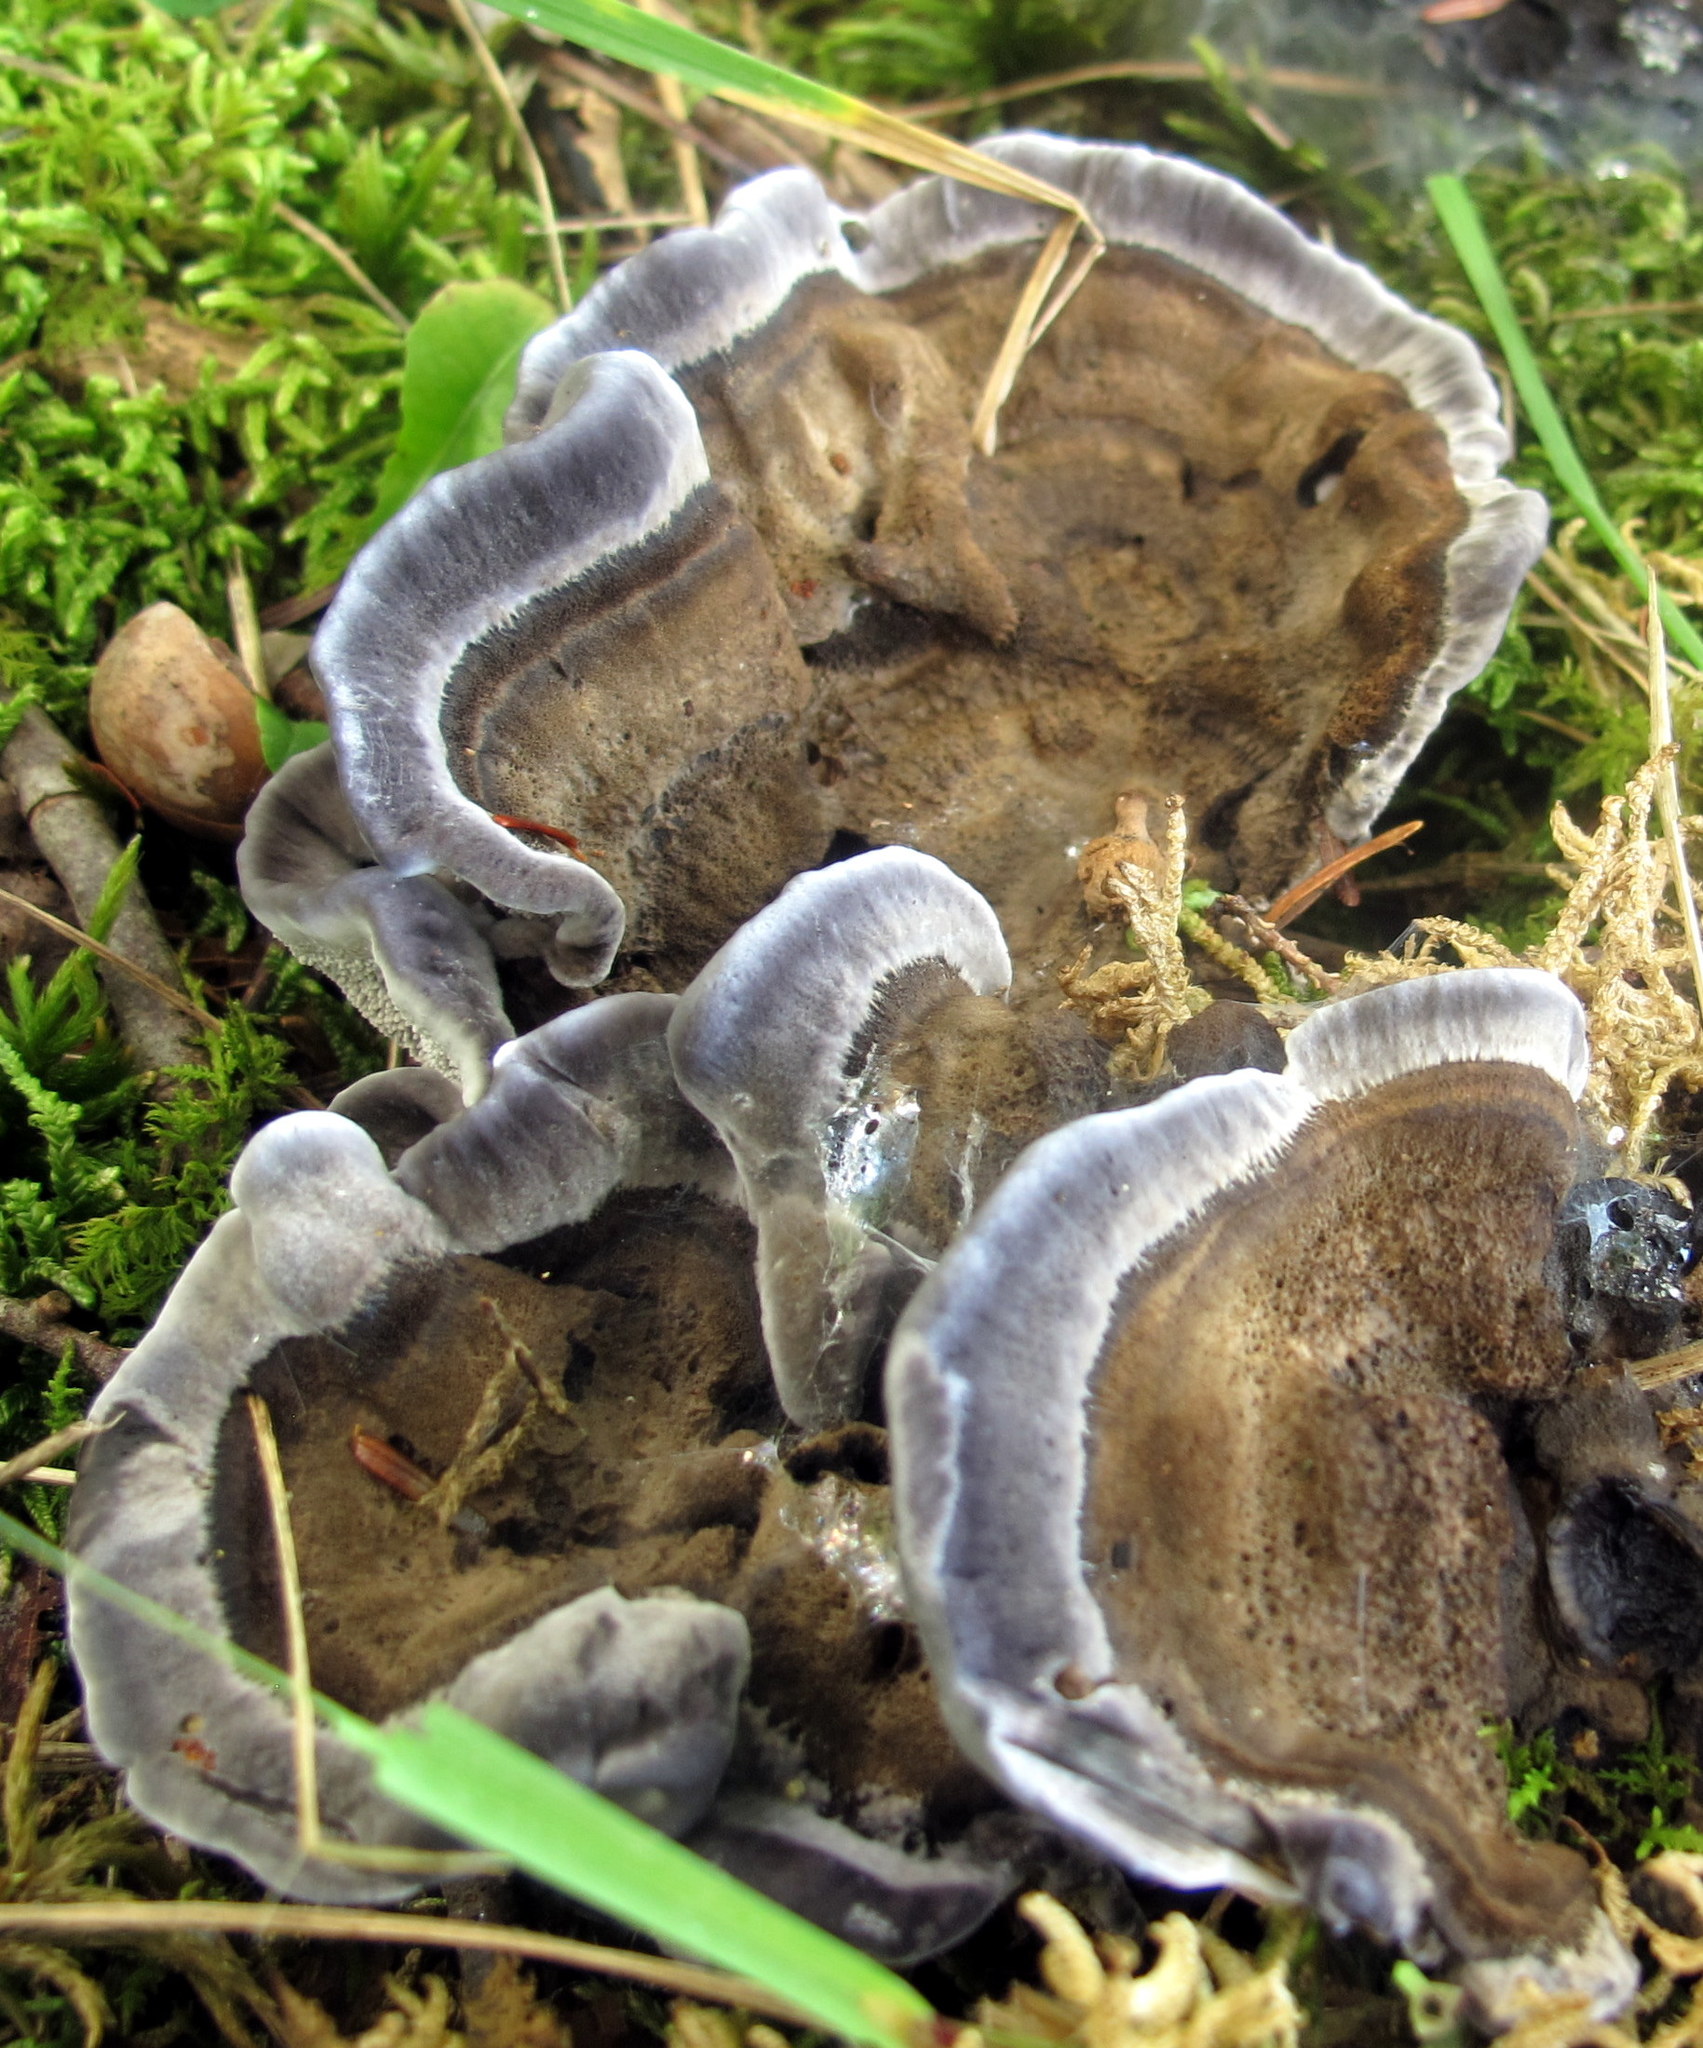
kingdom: Fungi
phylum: Basidiomycota
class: Agaricomycetes
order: Thelephorales
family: Thelephoraceae
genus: Phellodon
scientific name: Phellodon niger
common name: Black tooth
